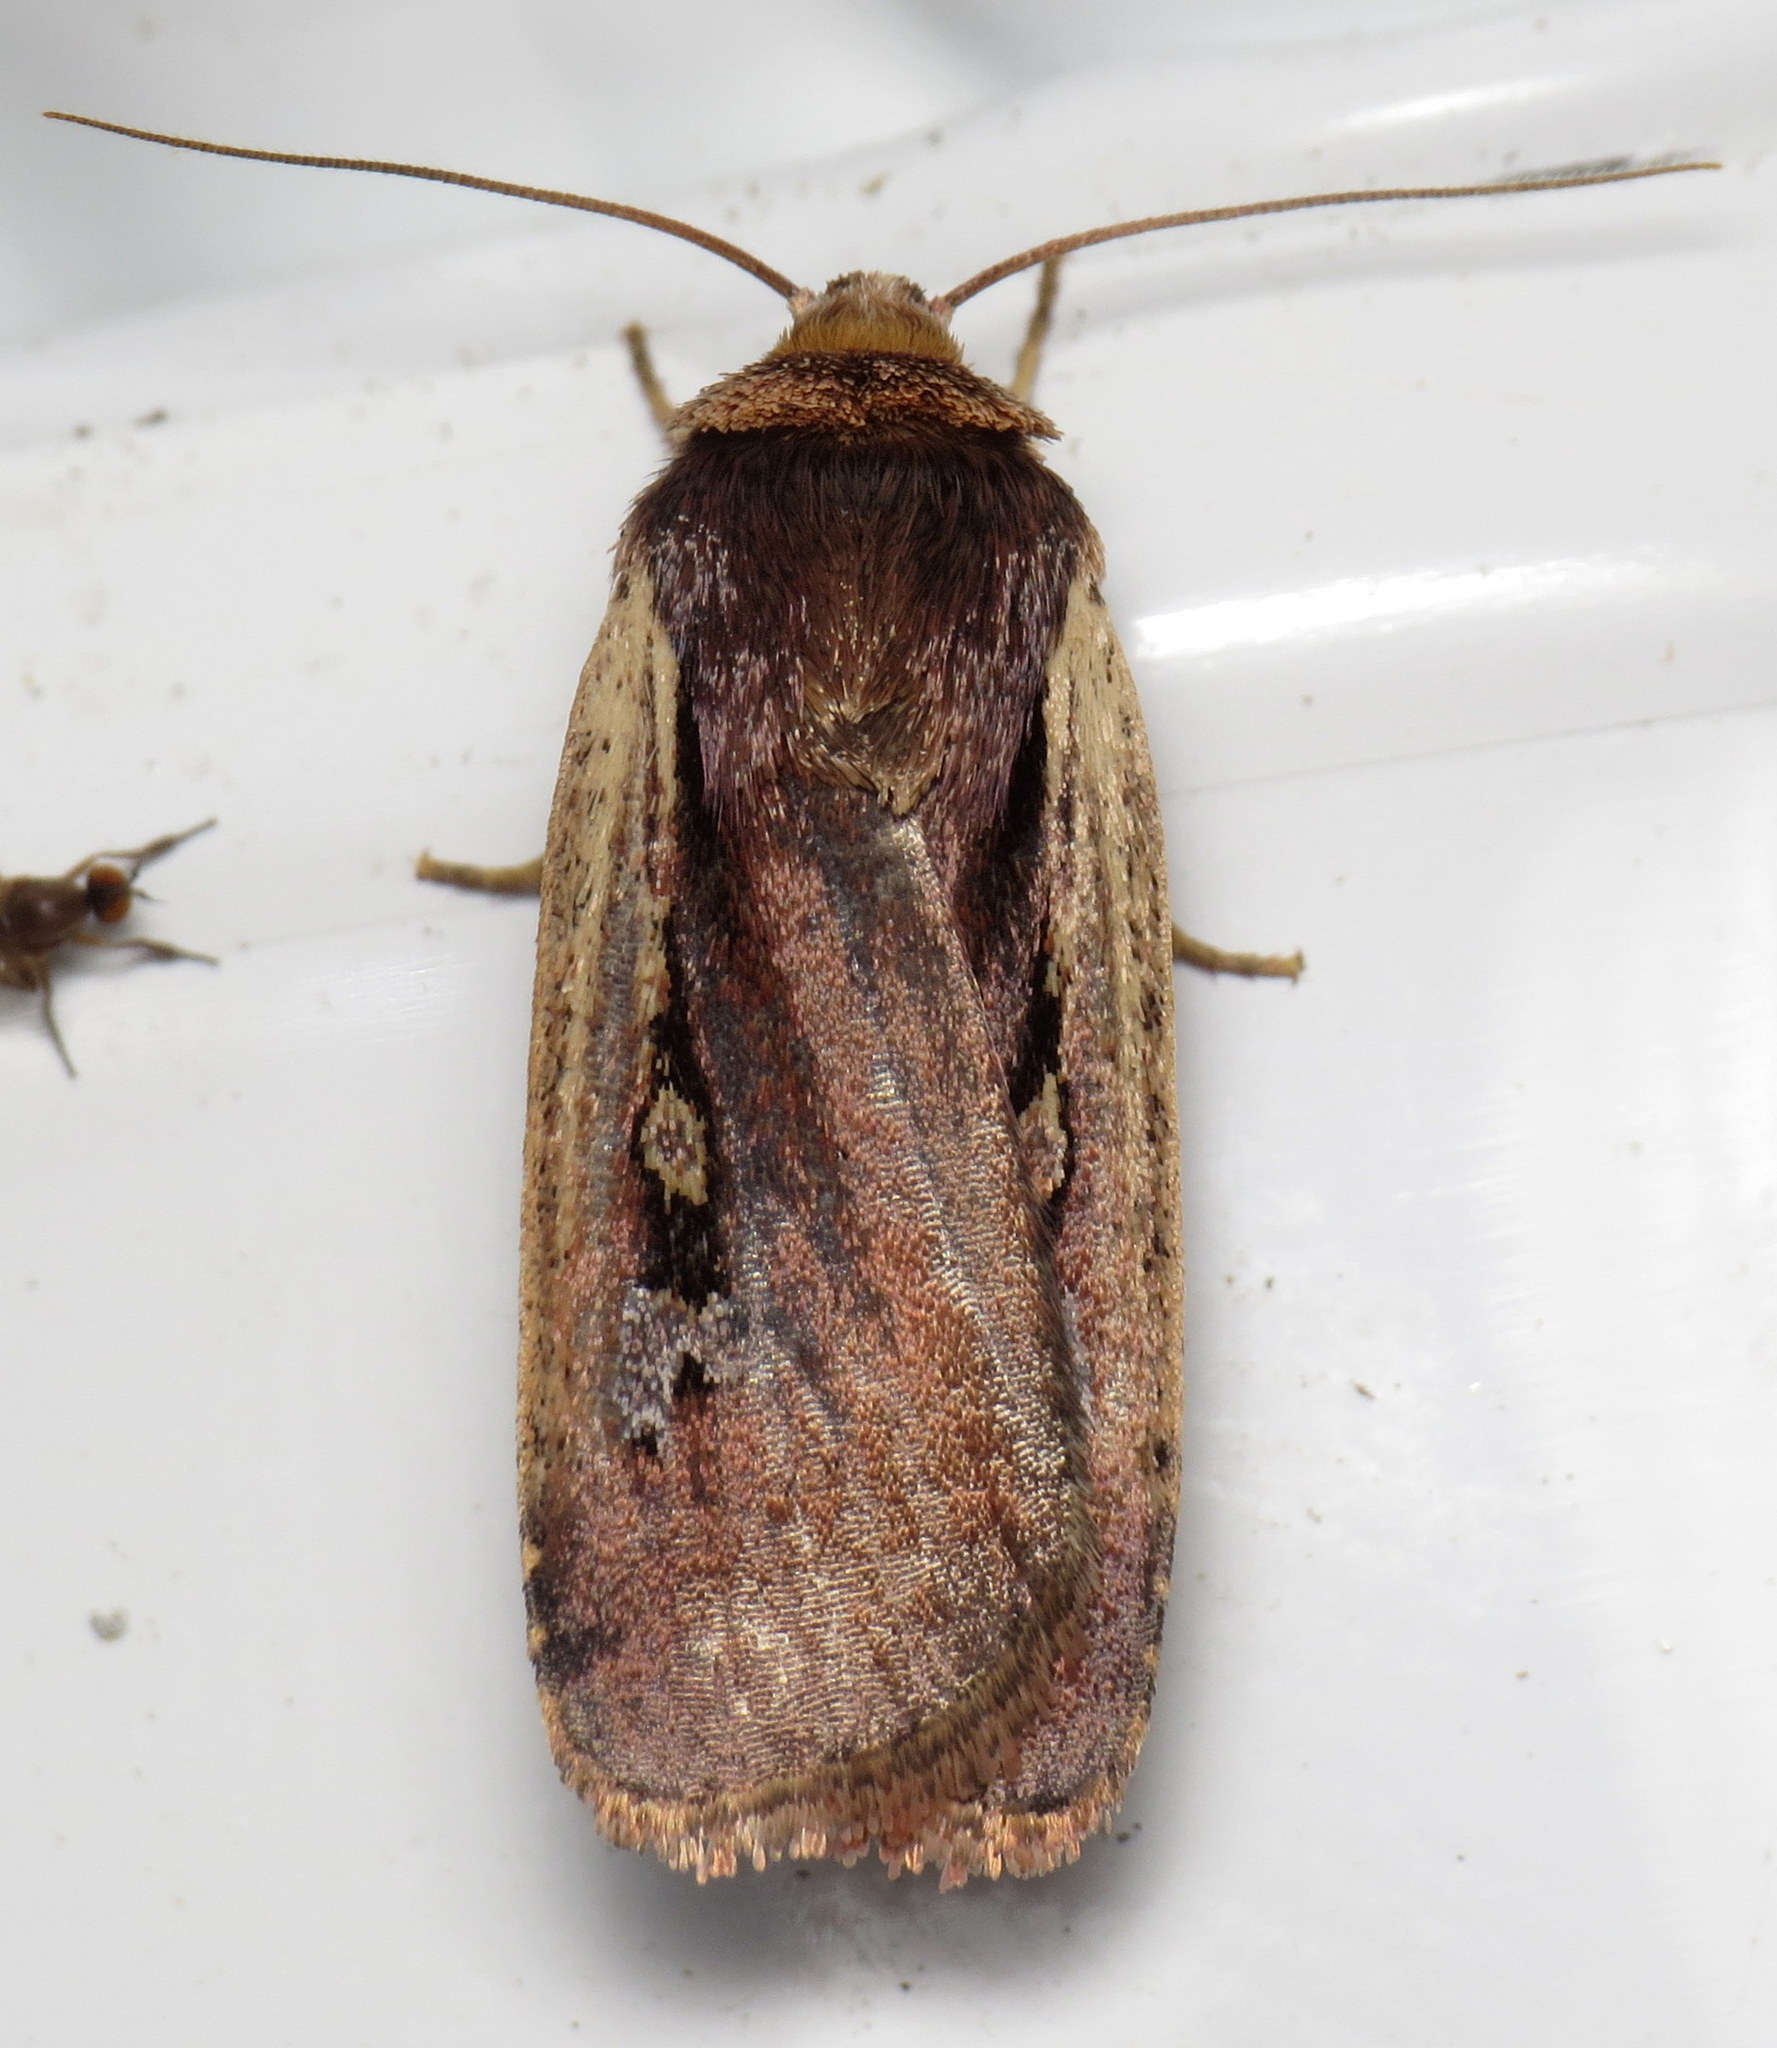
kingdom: Animalia
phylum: Arthropoda
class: Insecta
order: Lepidoptera
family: Noctuidae
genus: Ochropleura
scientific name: Ochropleura implecta
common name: Flame-shouldered dart
